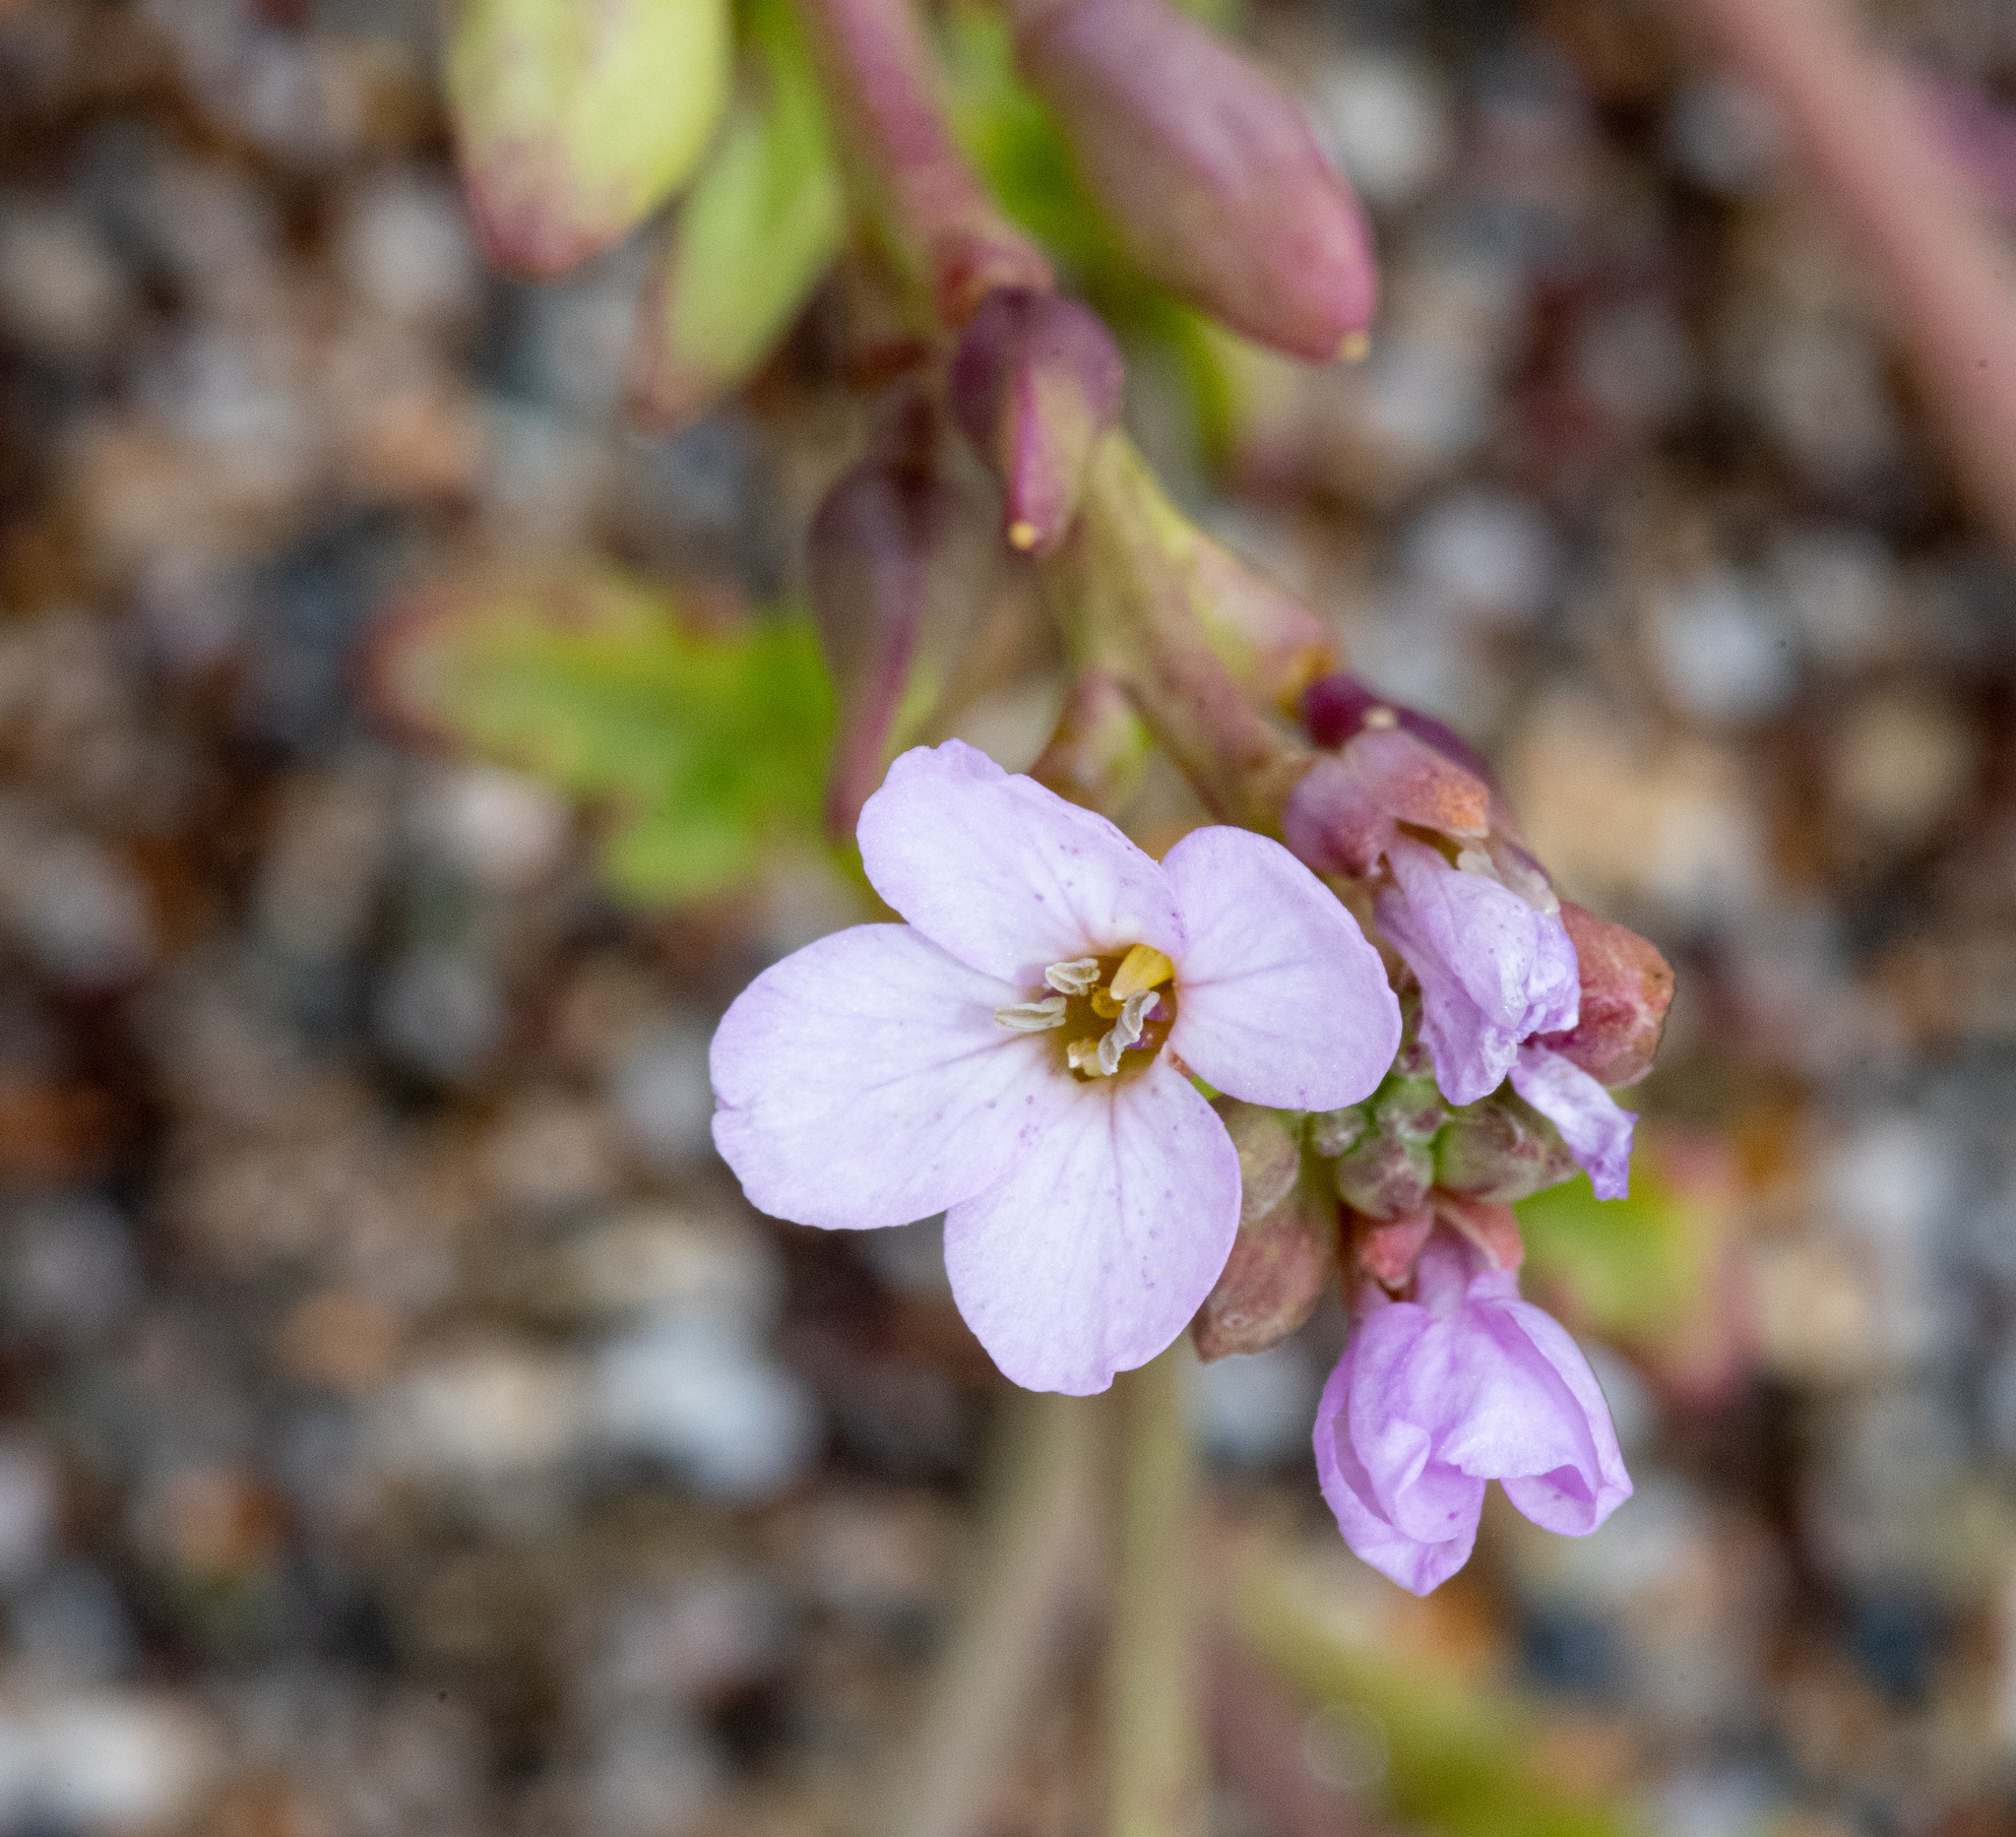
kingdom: Plantae
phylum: Tracheophyta
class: Magnoliopsida
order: Brassicales
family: Brassicaceae
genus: Cakile
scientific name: Cakile maritima
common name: Sea rocket
